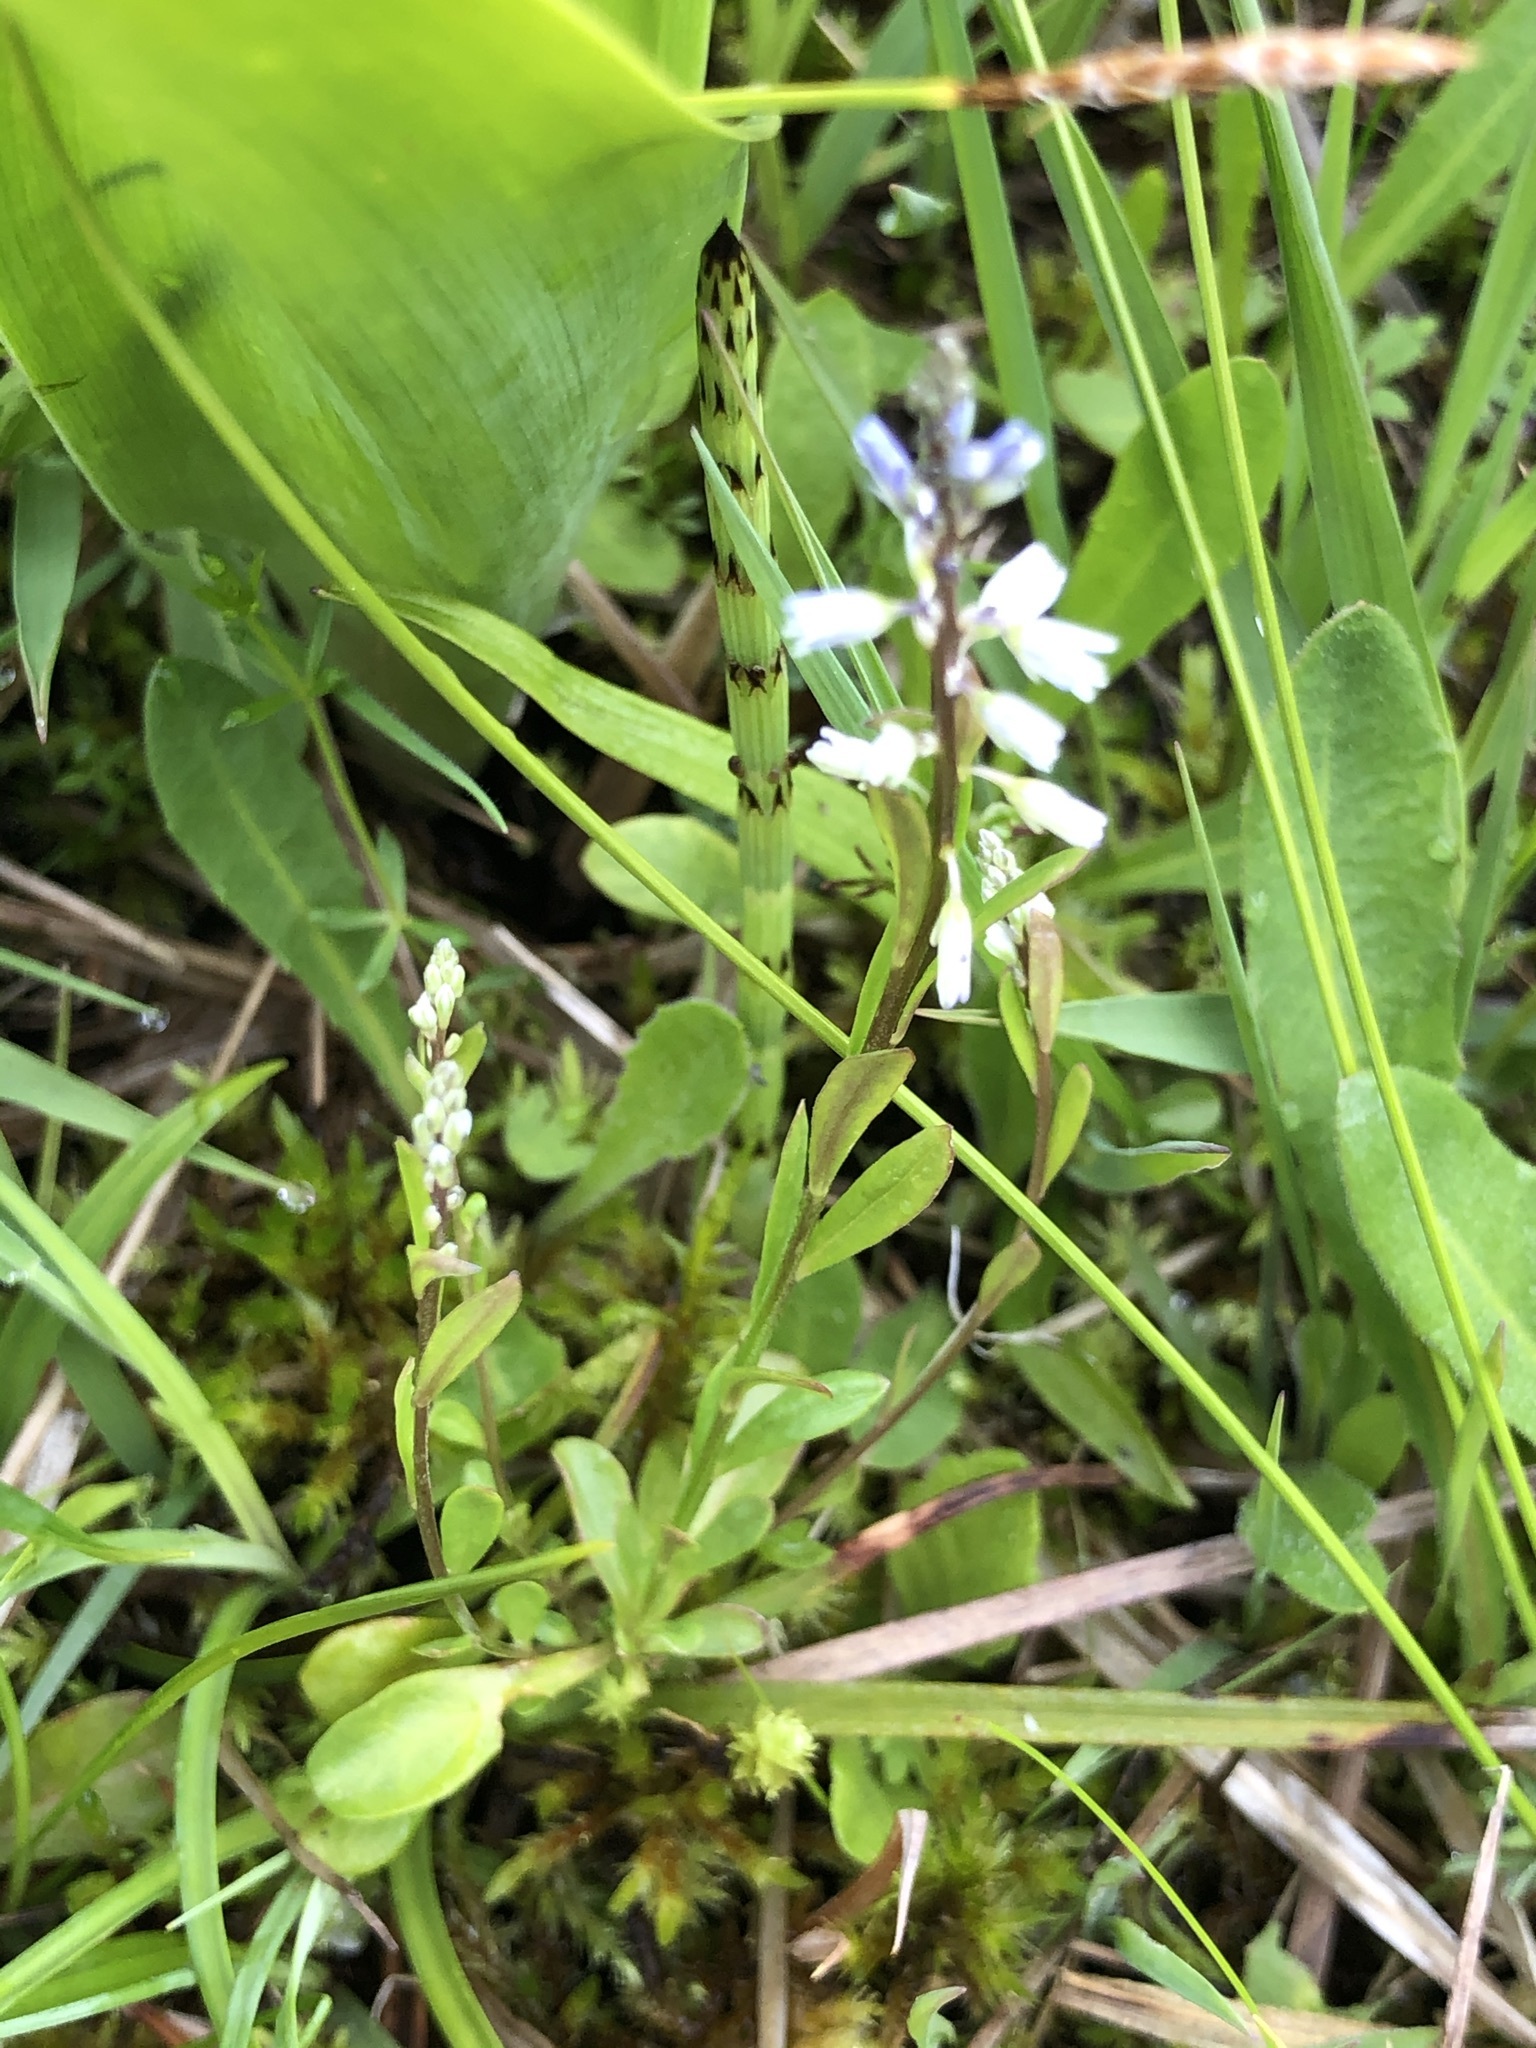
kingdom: Plantae
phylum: Tracheophyta
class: Magnoliopsida
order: Fabales
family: Polygalaceae
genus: Polygala
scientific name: Polygala amarella
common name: Dwarf milkwort
